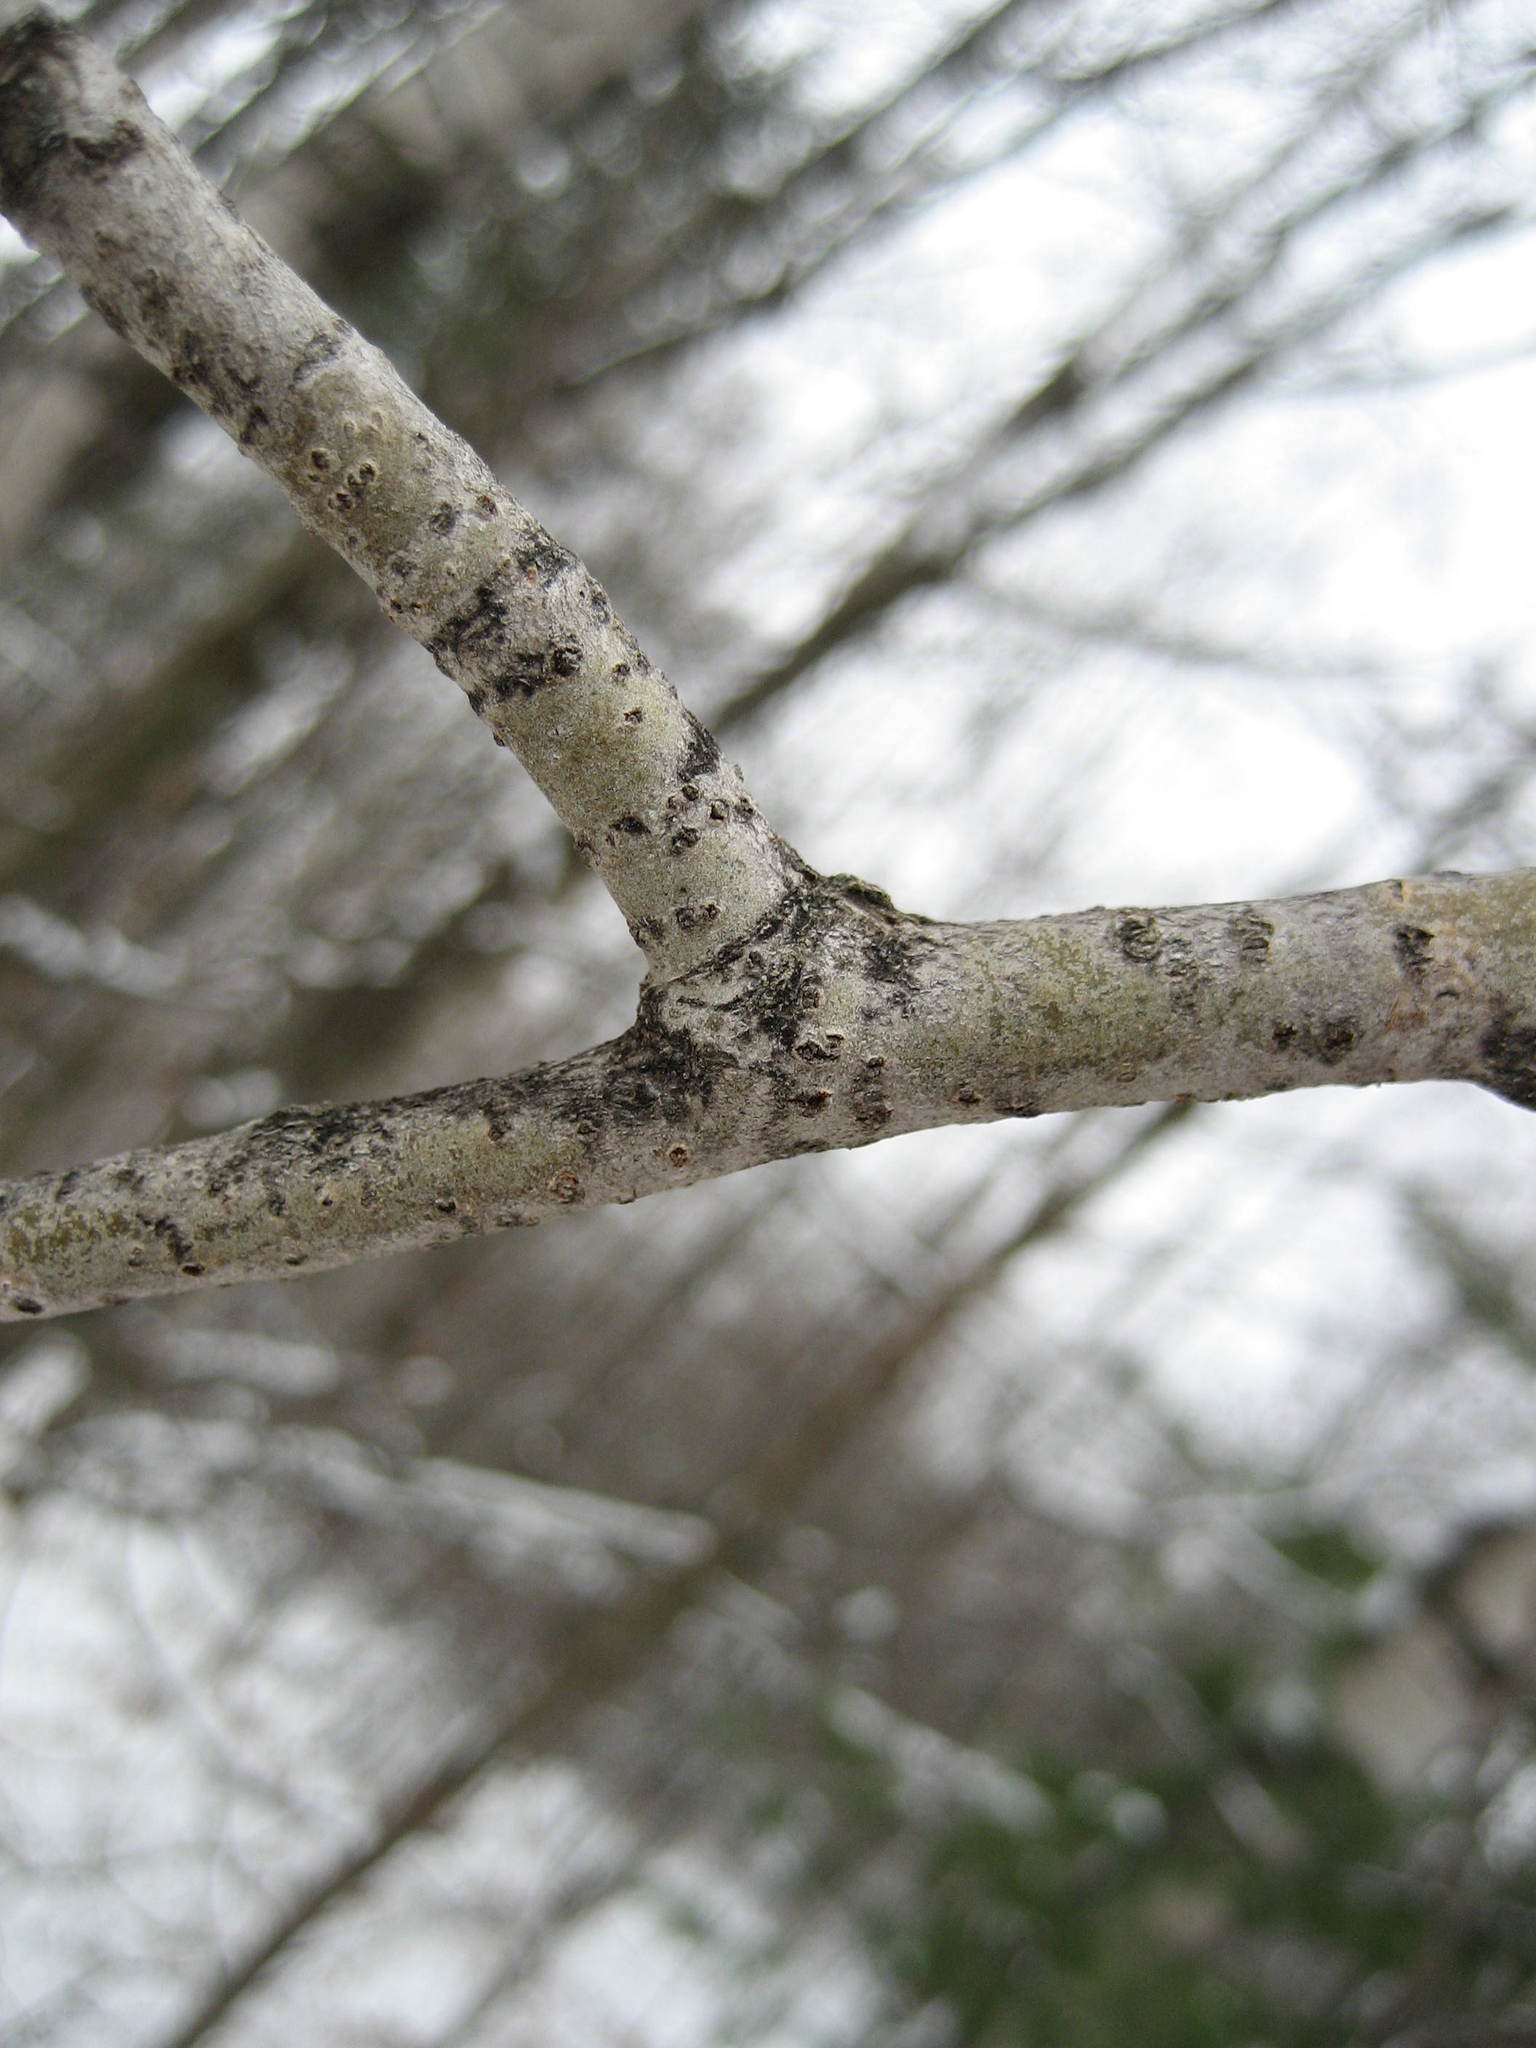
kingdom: Plantae
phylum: Tracheophyta
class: Magnoliopsida
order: Malpighiales
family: Salicaceae
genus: Populus
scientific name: Populus tremuloides
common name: Quaking aspen
